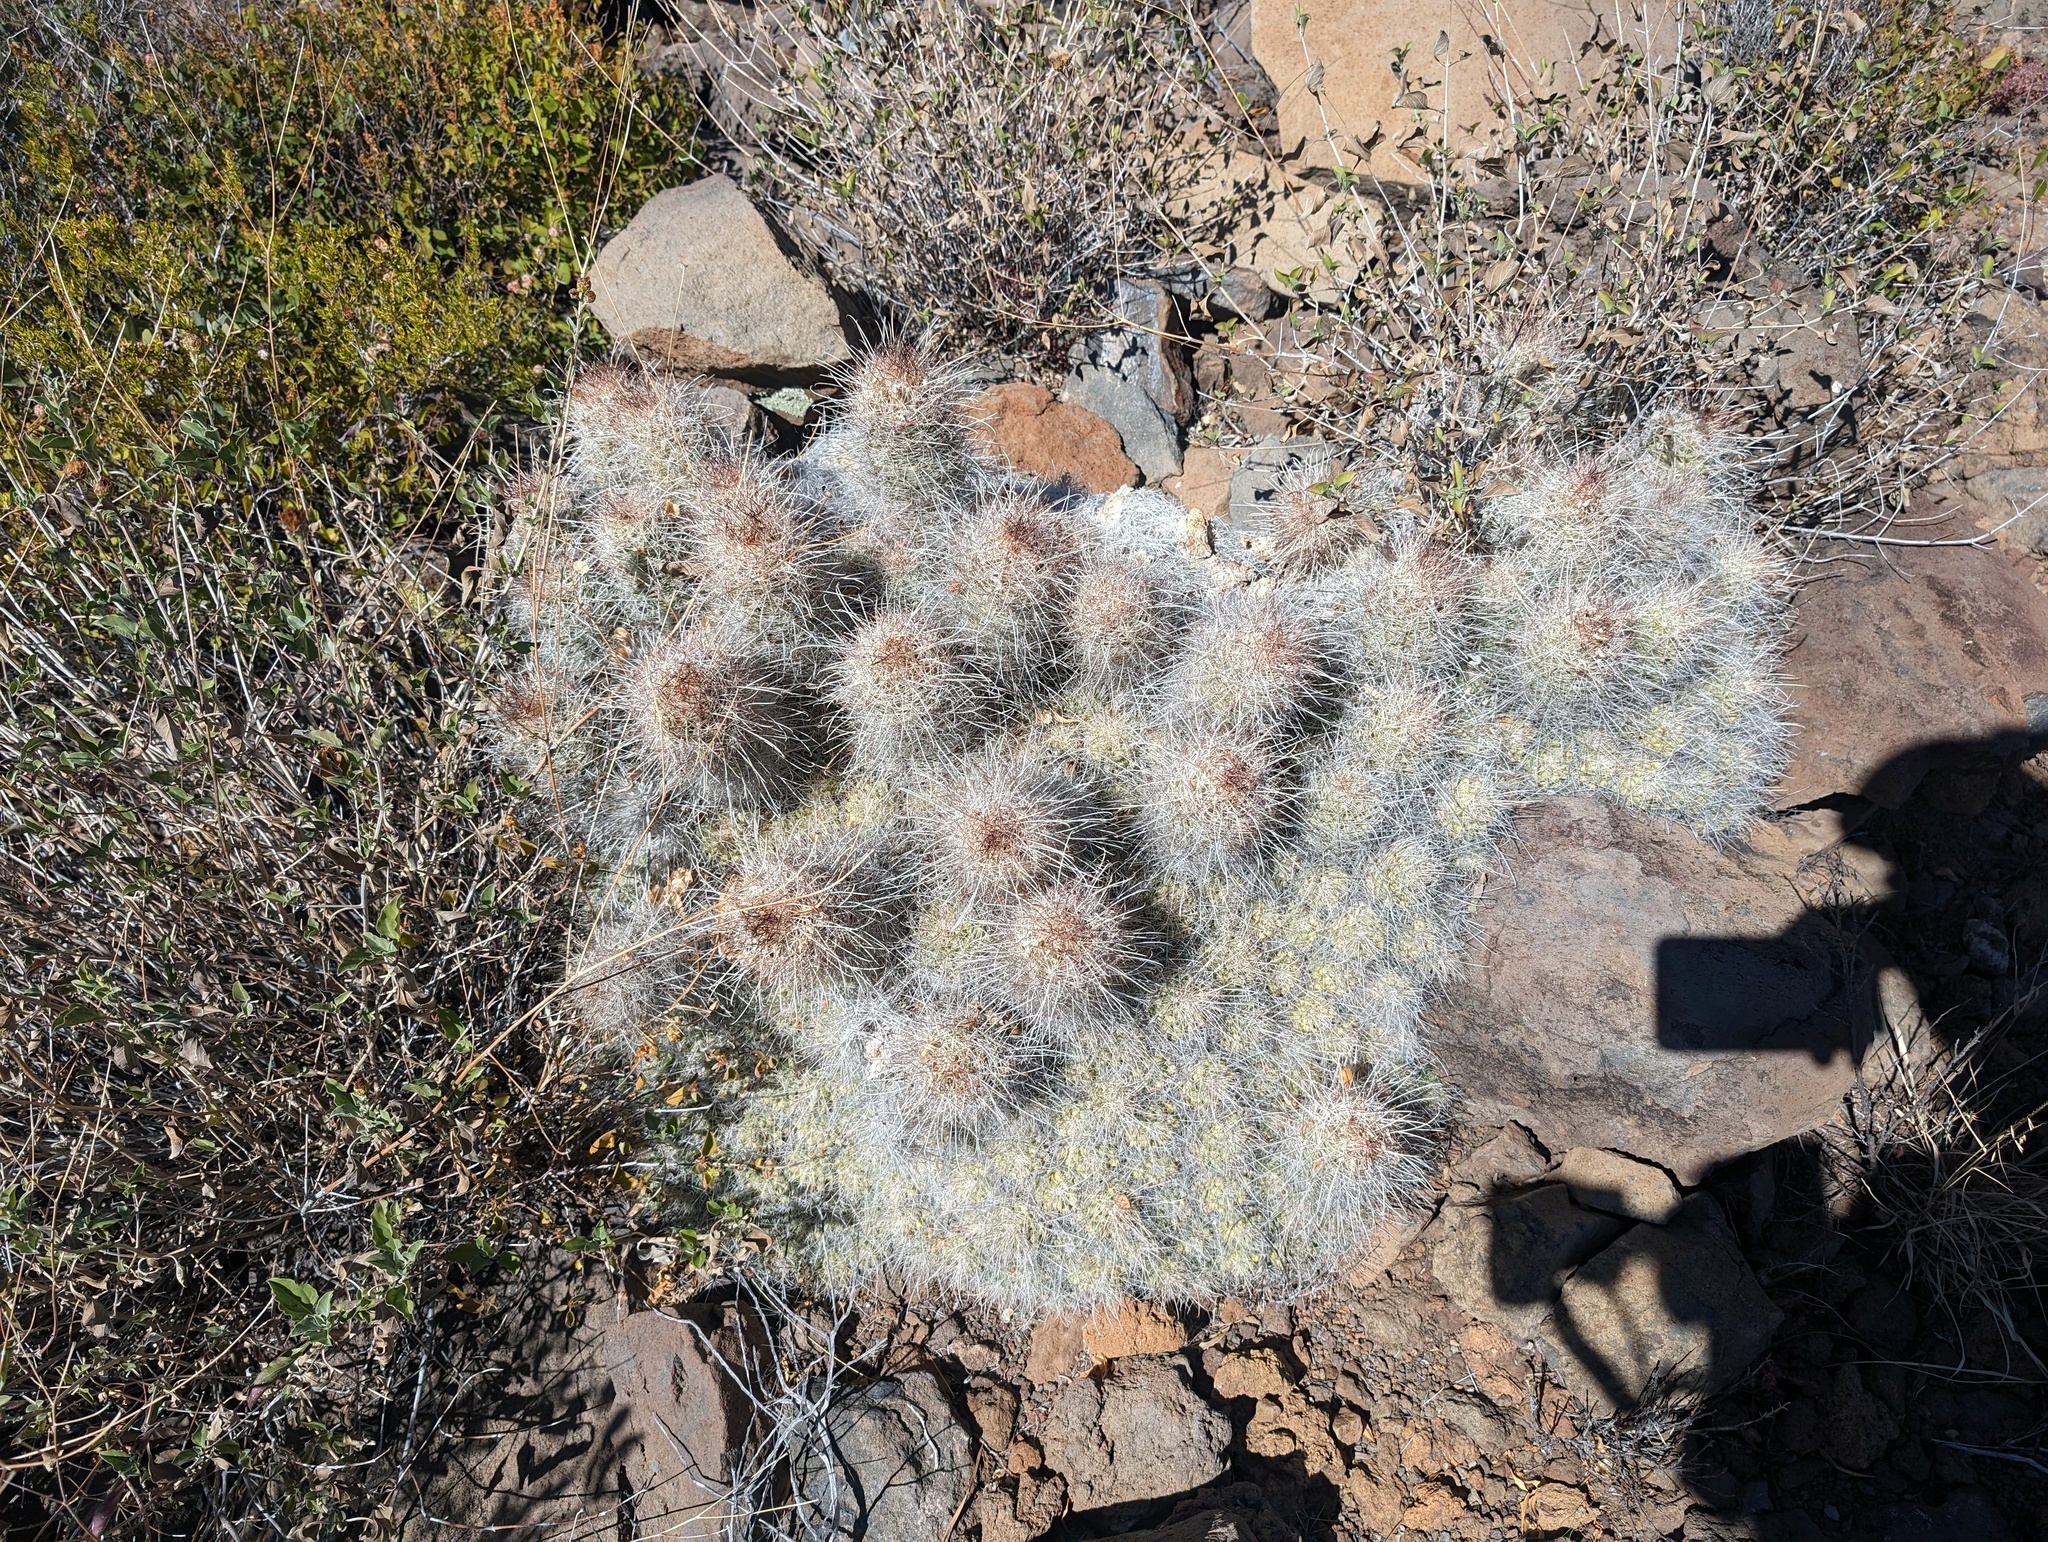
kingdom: Plantae
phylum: Tracheophyta
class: Magnoliopsida
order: Caryophyllales
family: Cactaceae
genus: Cochemiea
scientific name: Cochemiea setispina
